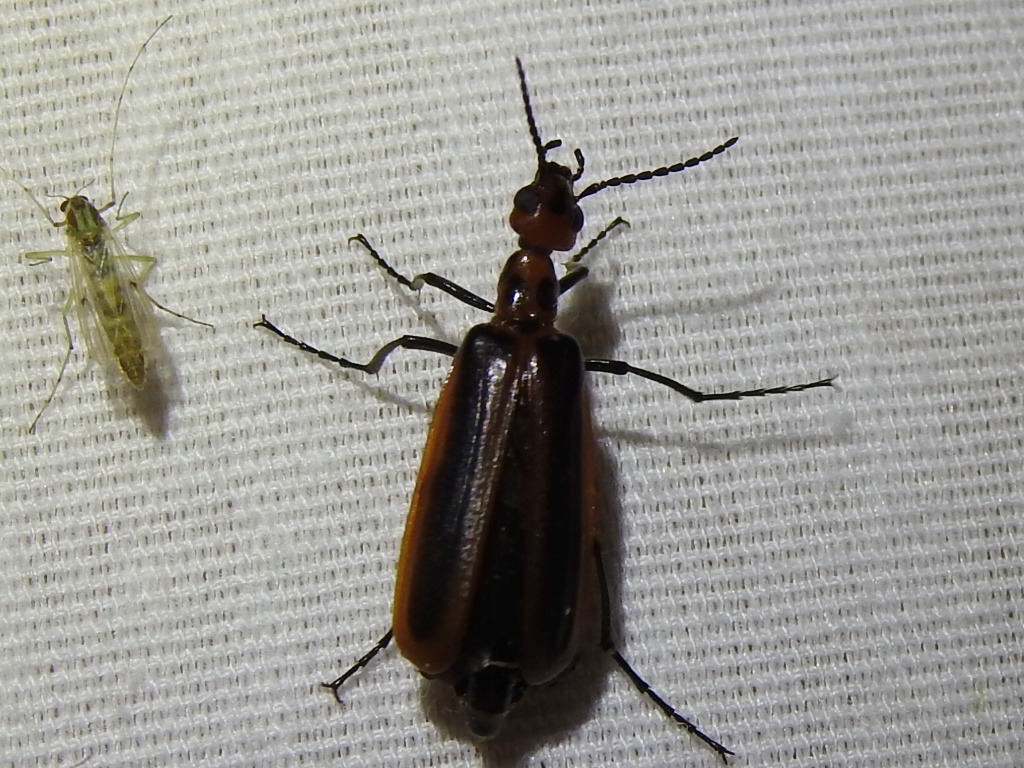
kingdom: Animalia
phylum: Arthropoda
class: Insecta
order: Coleoptera
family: Meloidae
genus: Pyrota
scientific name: Pyrota tenuicostatis
